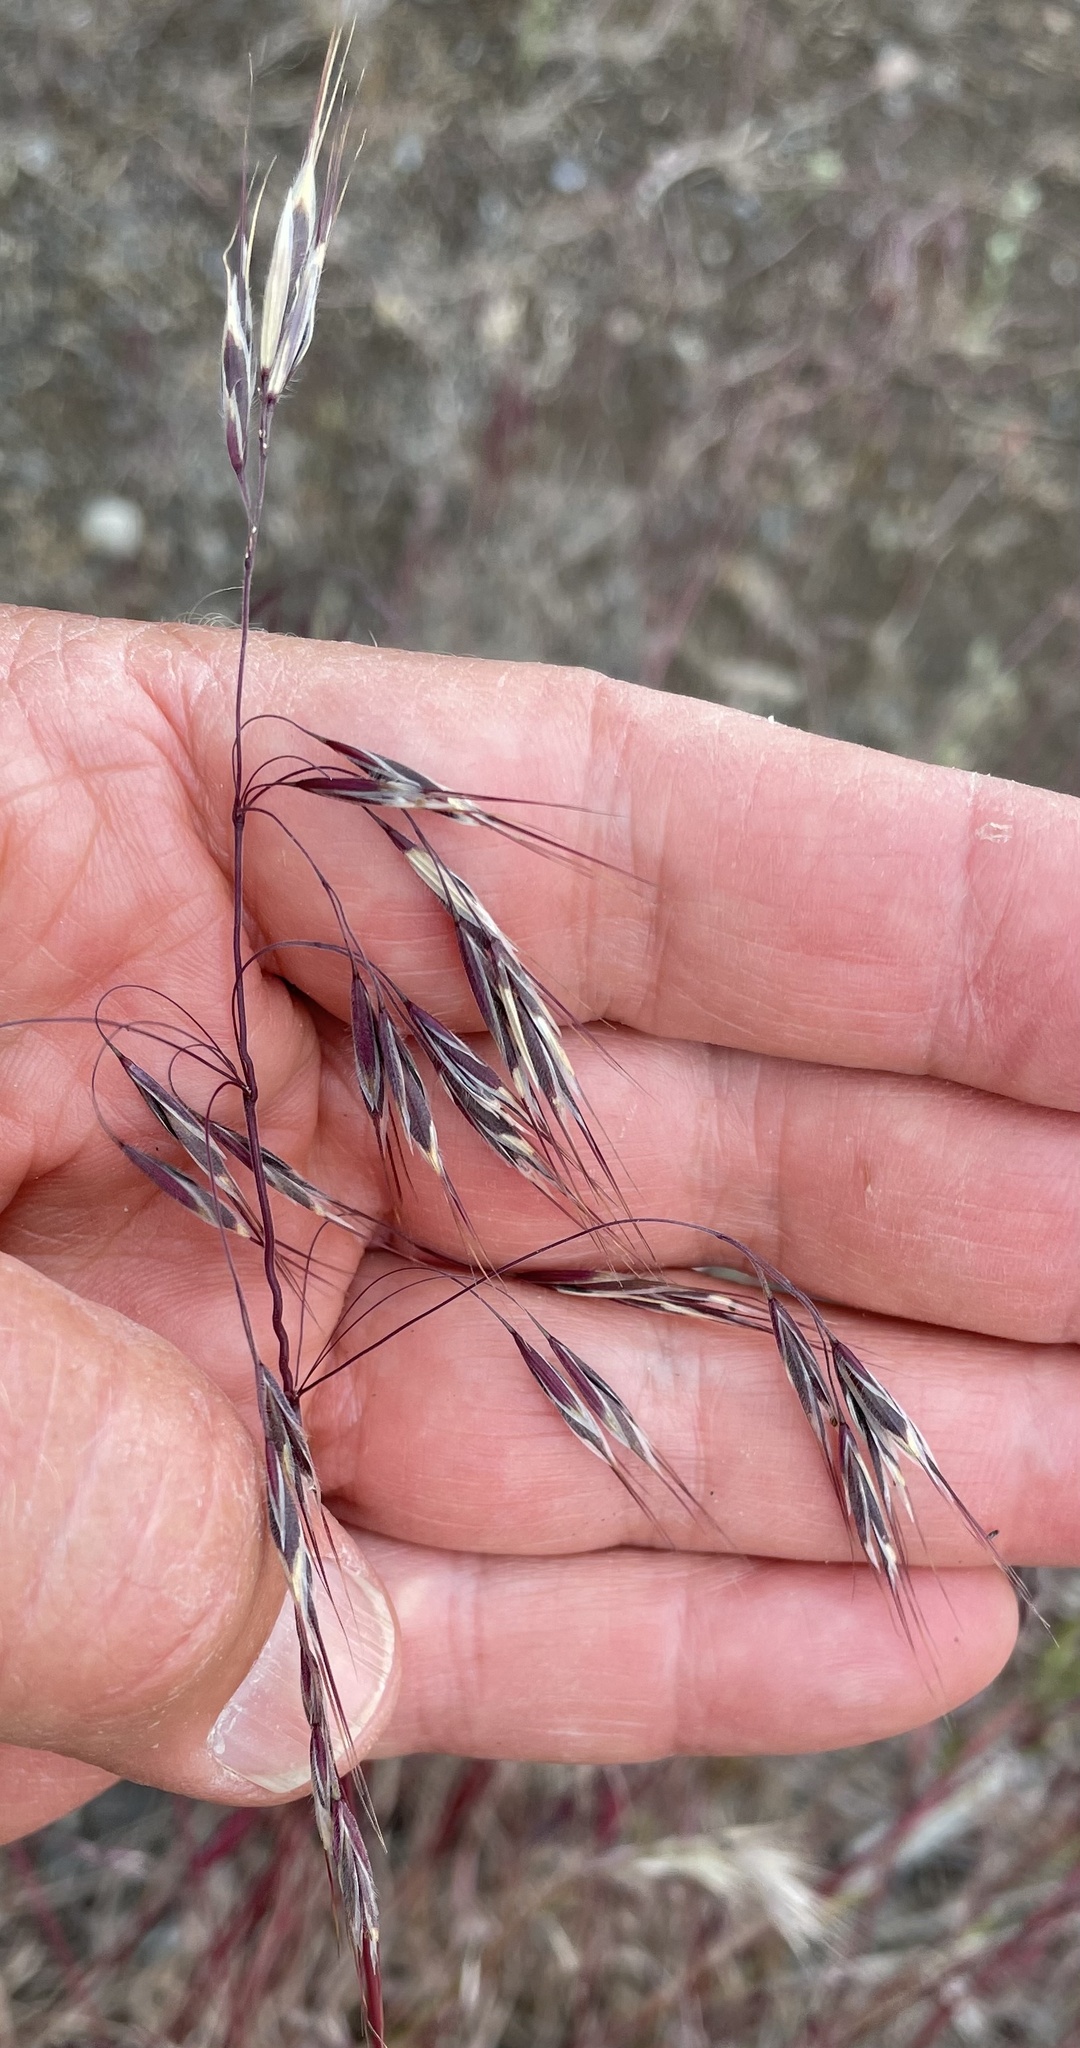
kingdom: Plantae
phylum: Tracheophyta
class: Liliopsida
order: Poales
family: Poaceae
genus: Bromus
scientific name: Bromus tectorum
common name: Cheatgrass
